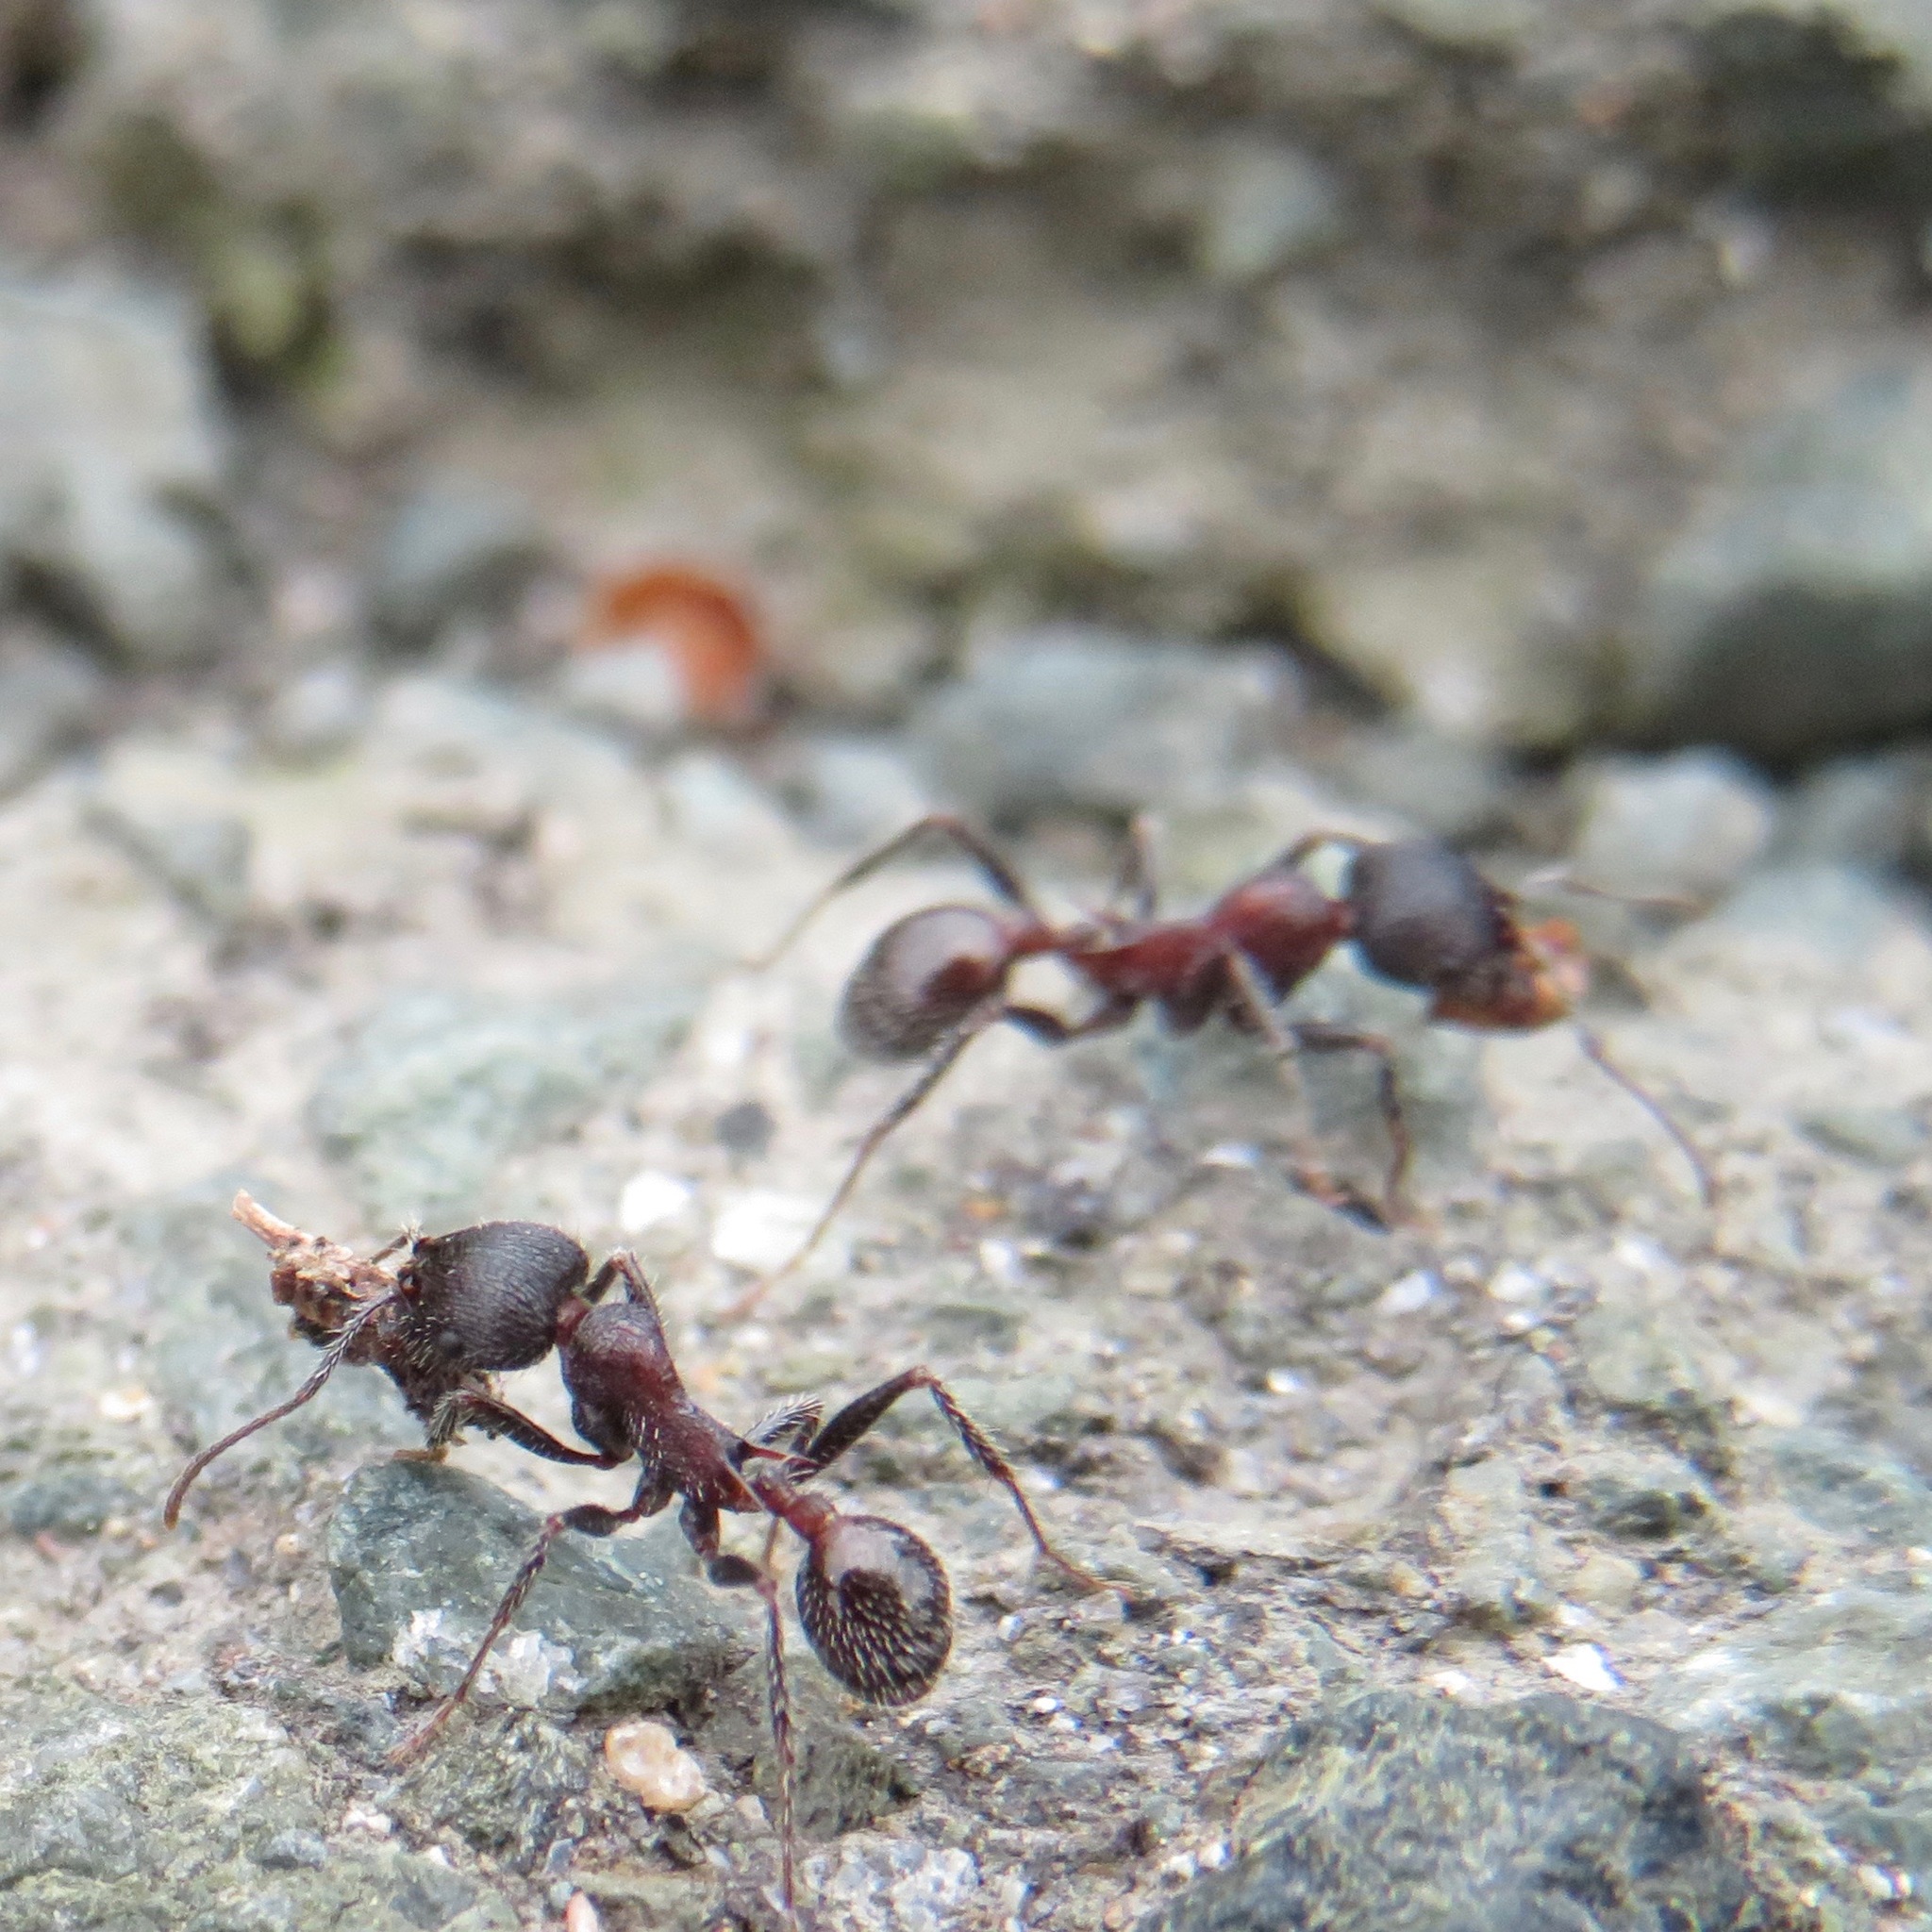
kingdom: Animalia
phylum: Arthropoda
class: Insecta
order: Hymenoptera
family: Formicidae
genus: Veromessor
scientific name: Veromessor andrei
